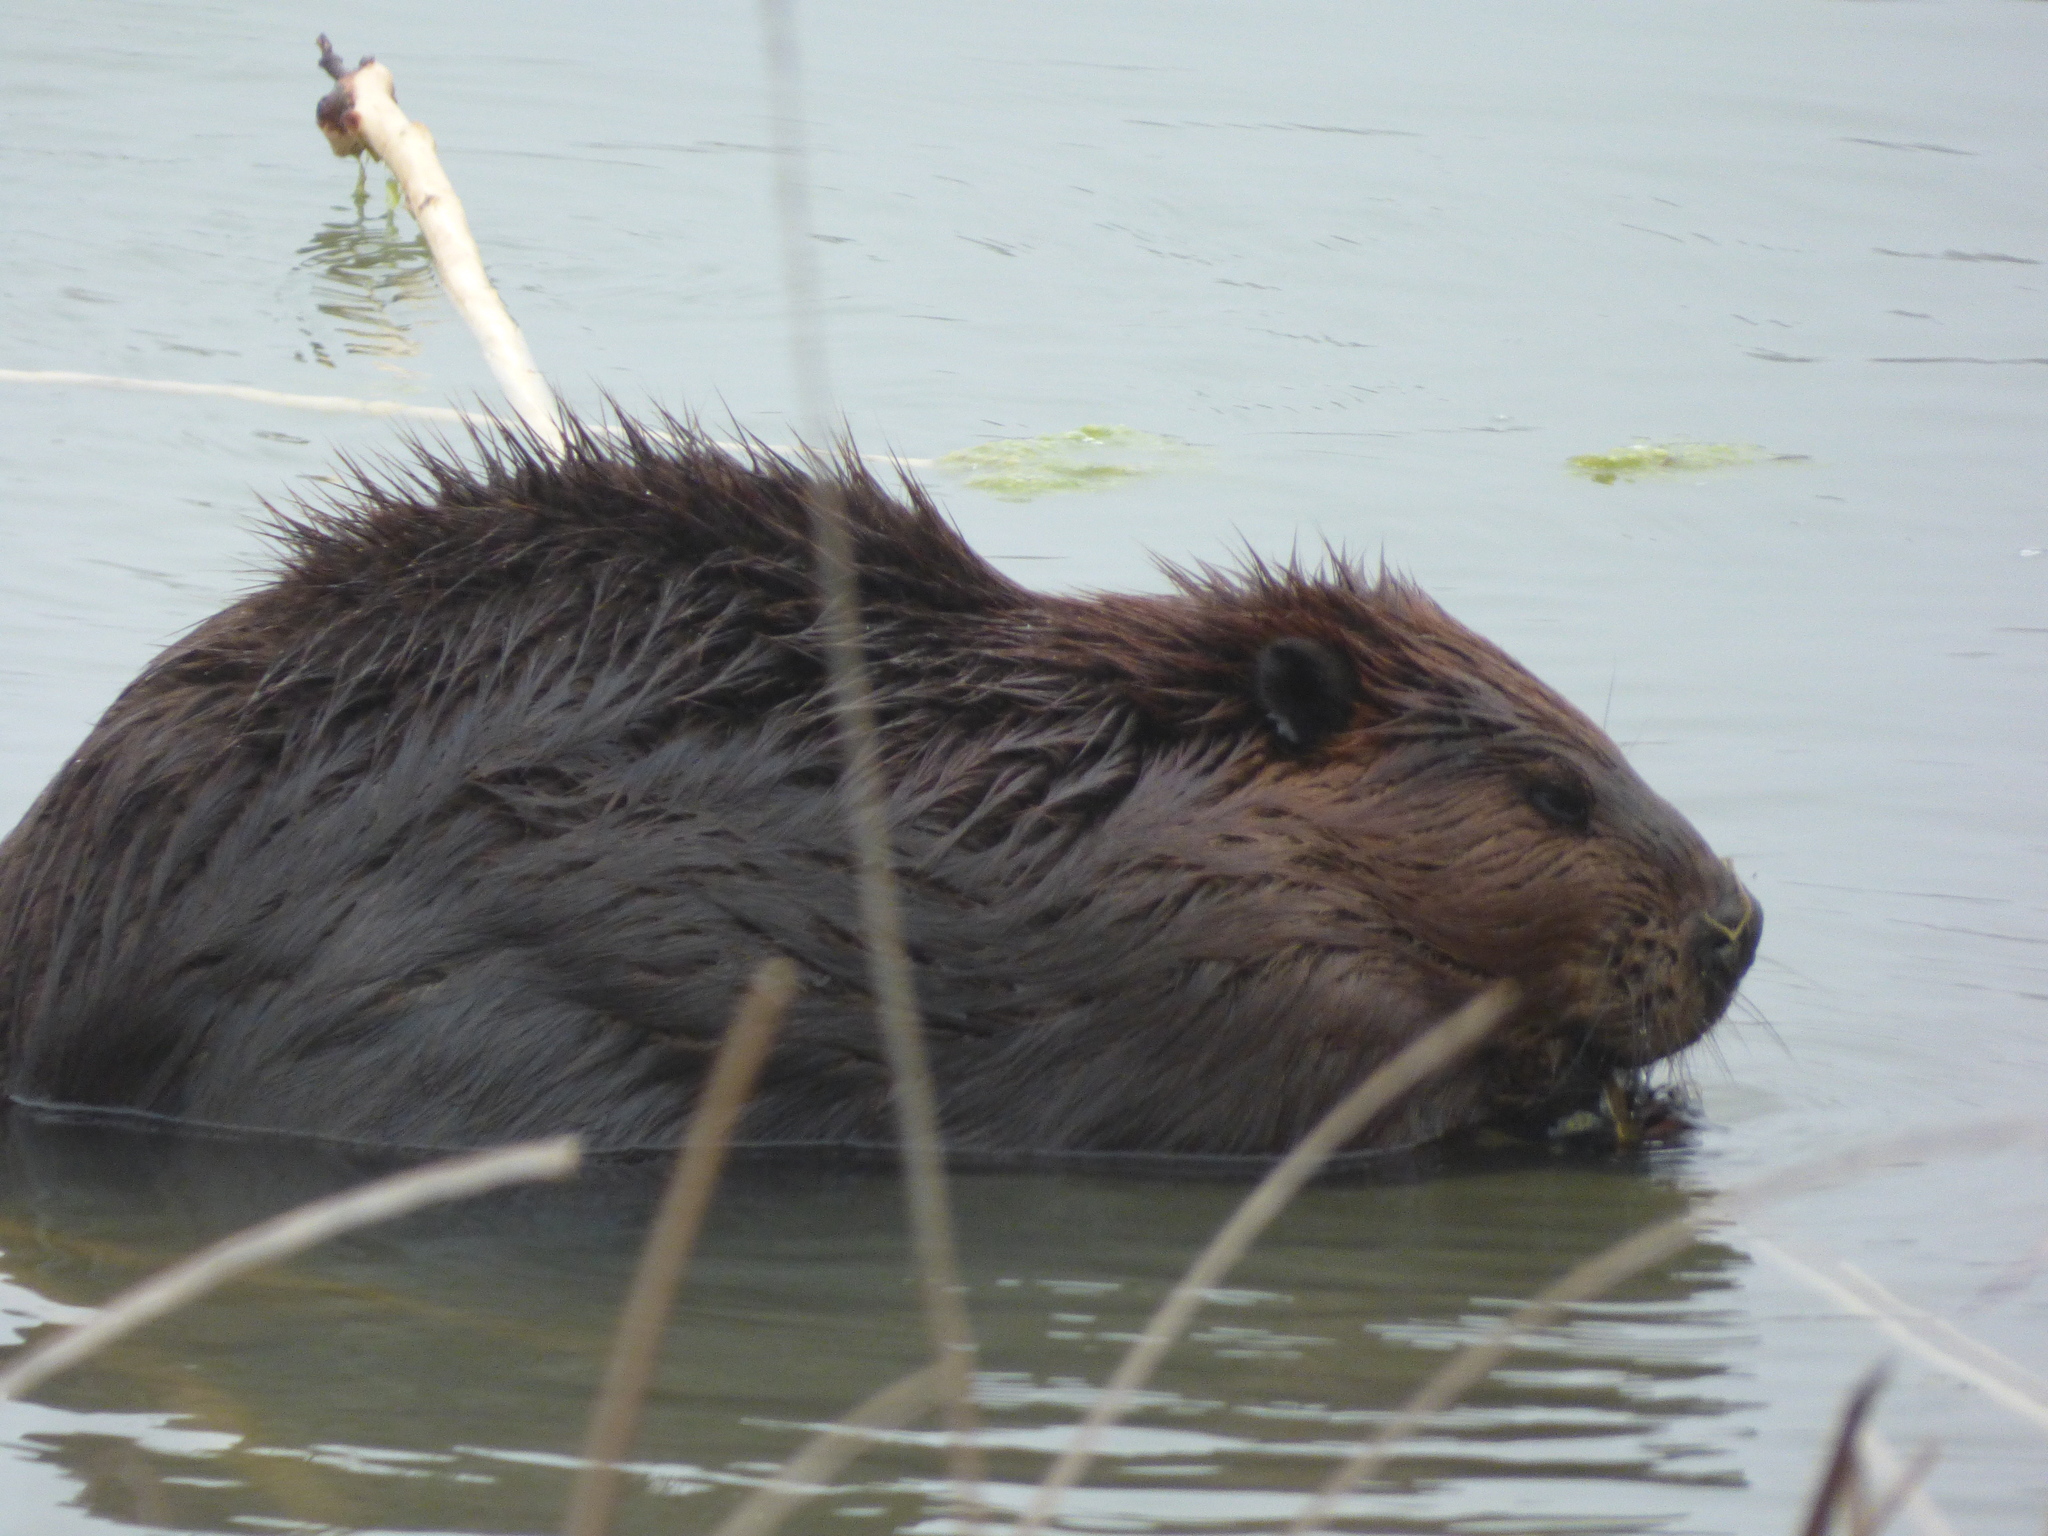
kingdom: Animalia
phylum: Chordata
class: Mammalia
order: Rodentia
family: Castoridae
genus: Castor
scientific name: Castor canadensis
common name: American beaver
